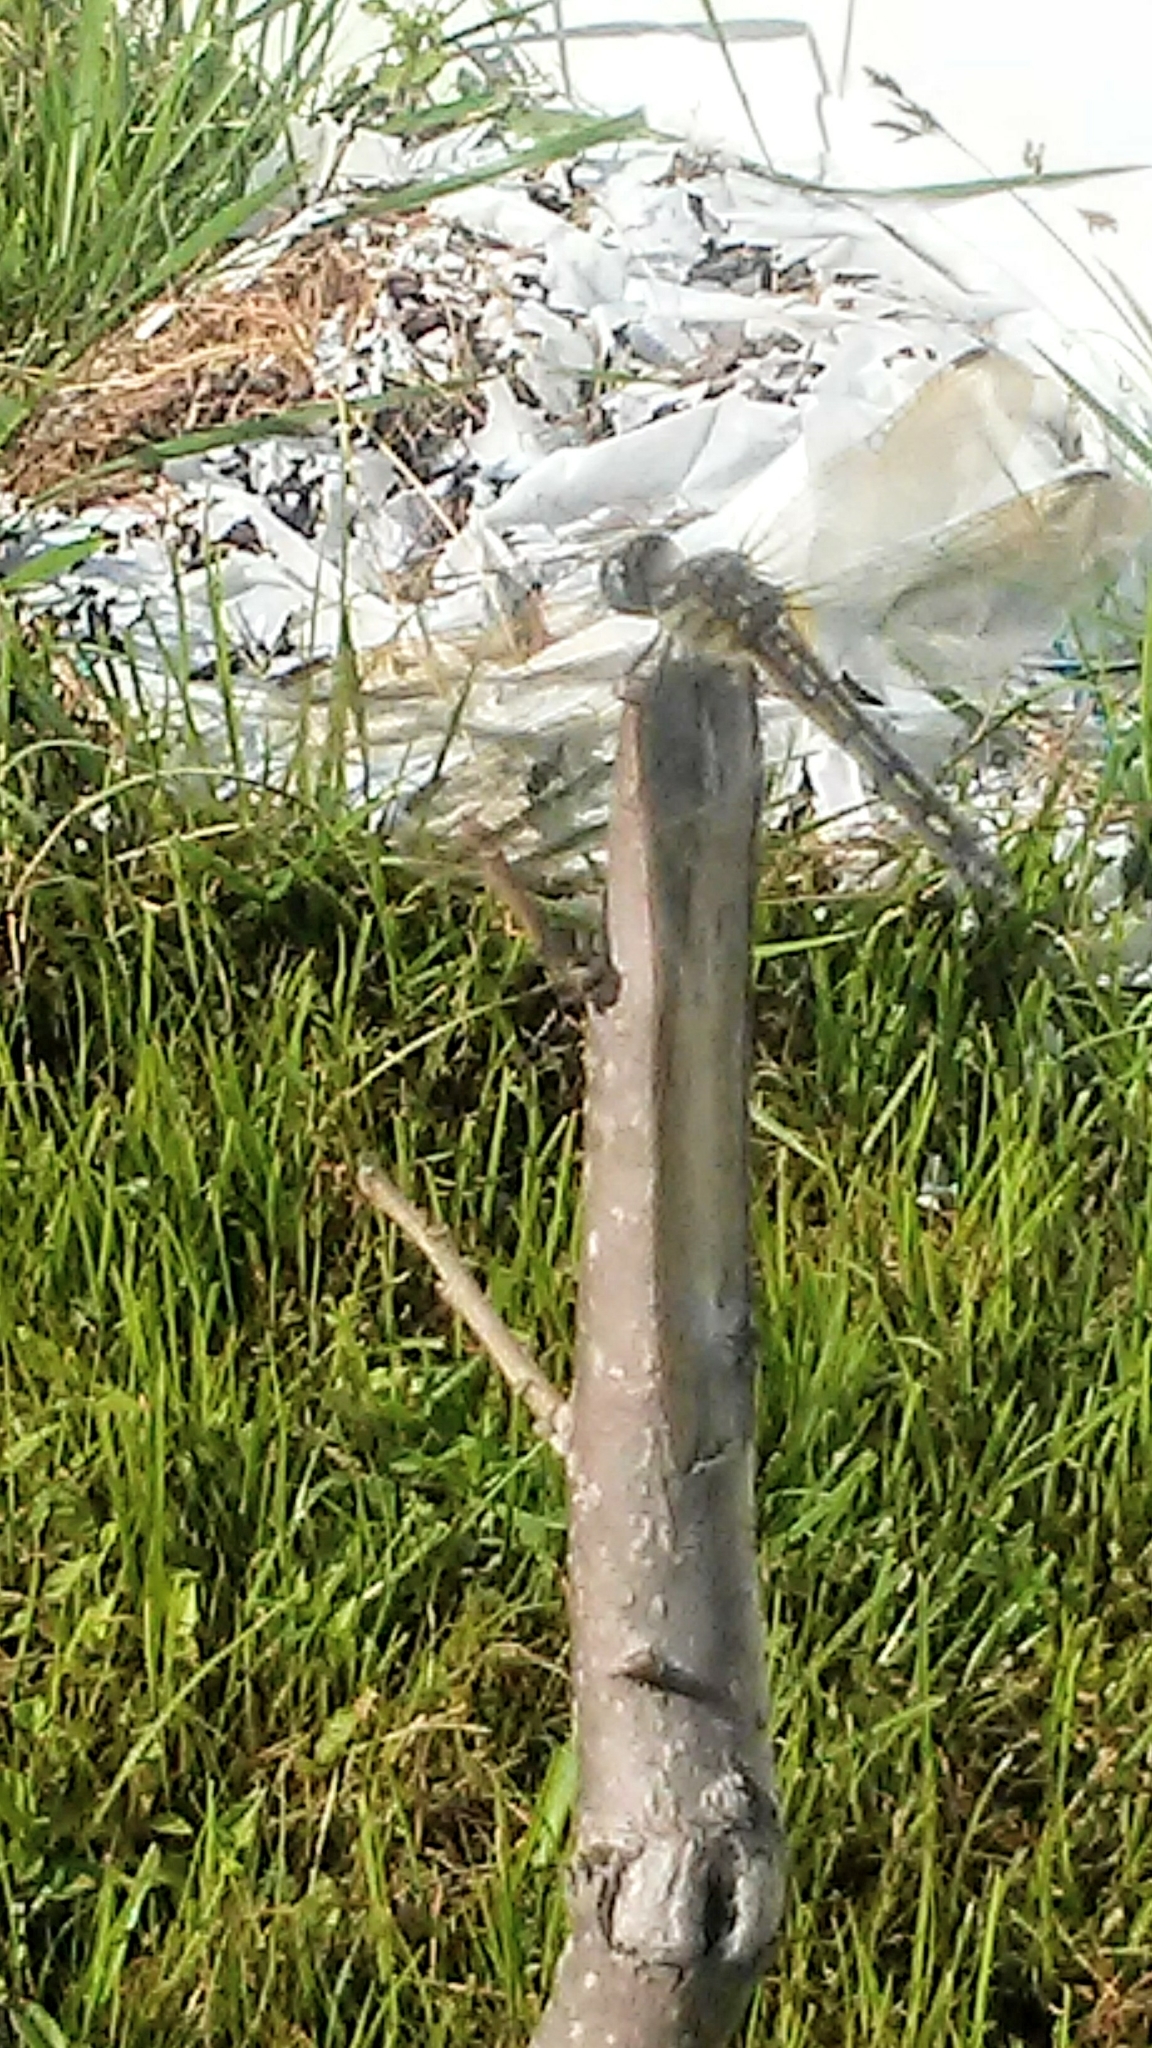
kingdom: Animalia
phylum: Arthropoda
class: Insecta
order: Odonata
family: Libellulidae
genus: Pachydiplax
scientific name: Pachydiplax longipennis
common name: Blue dasher
